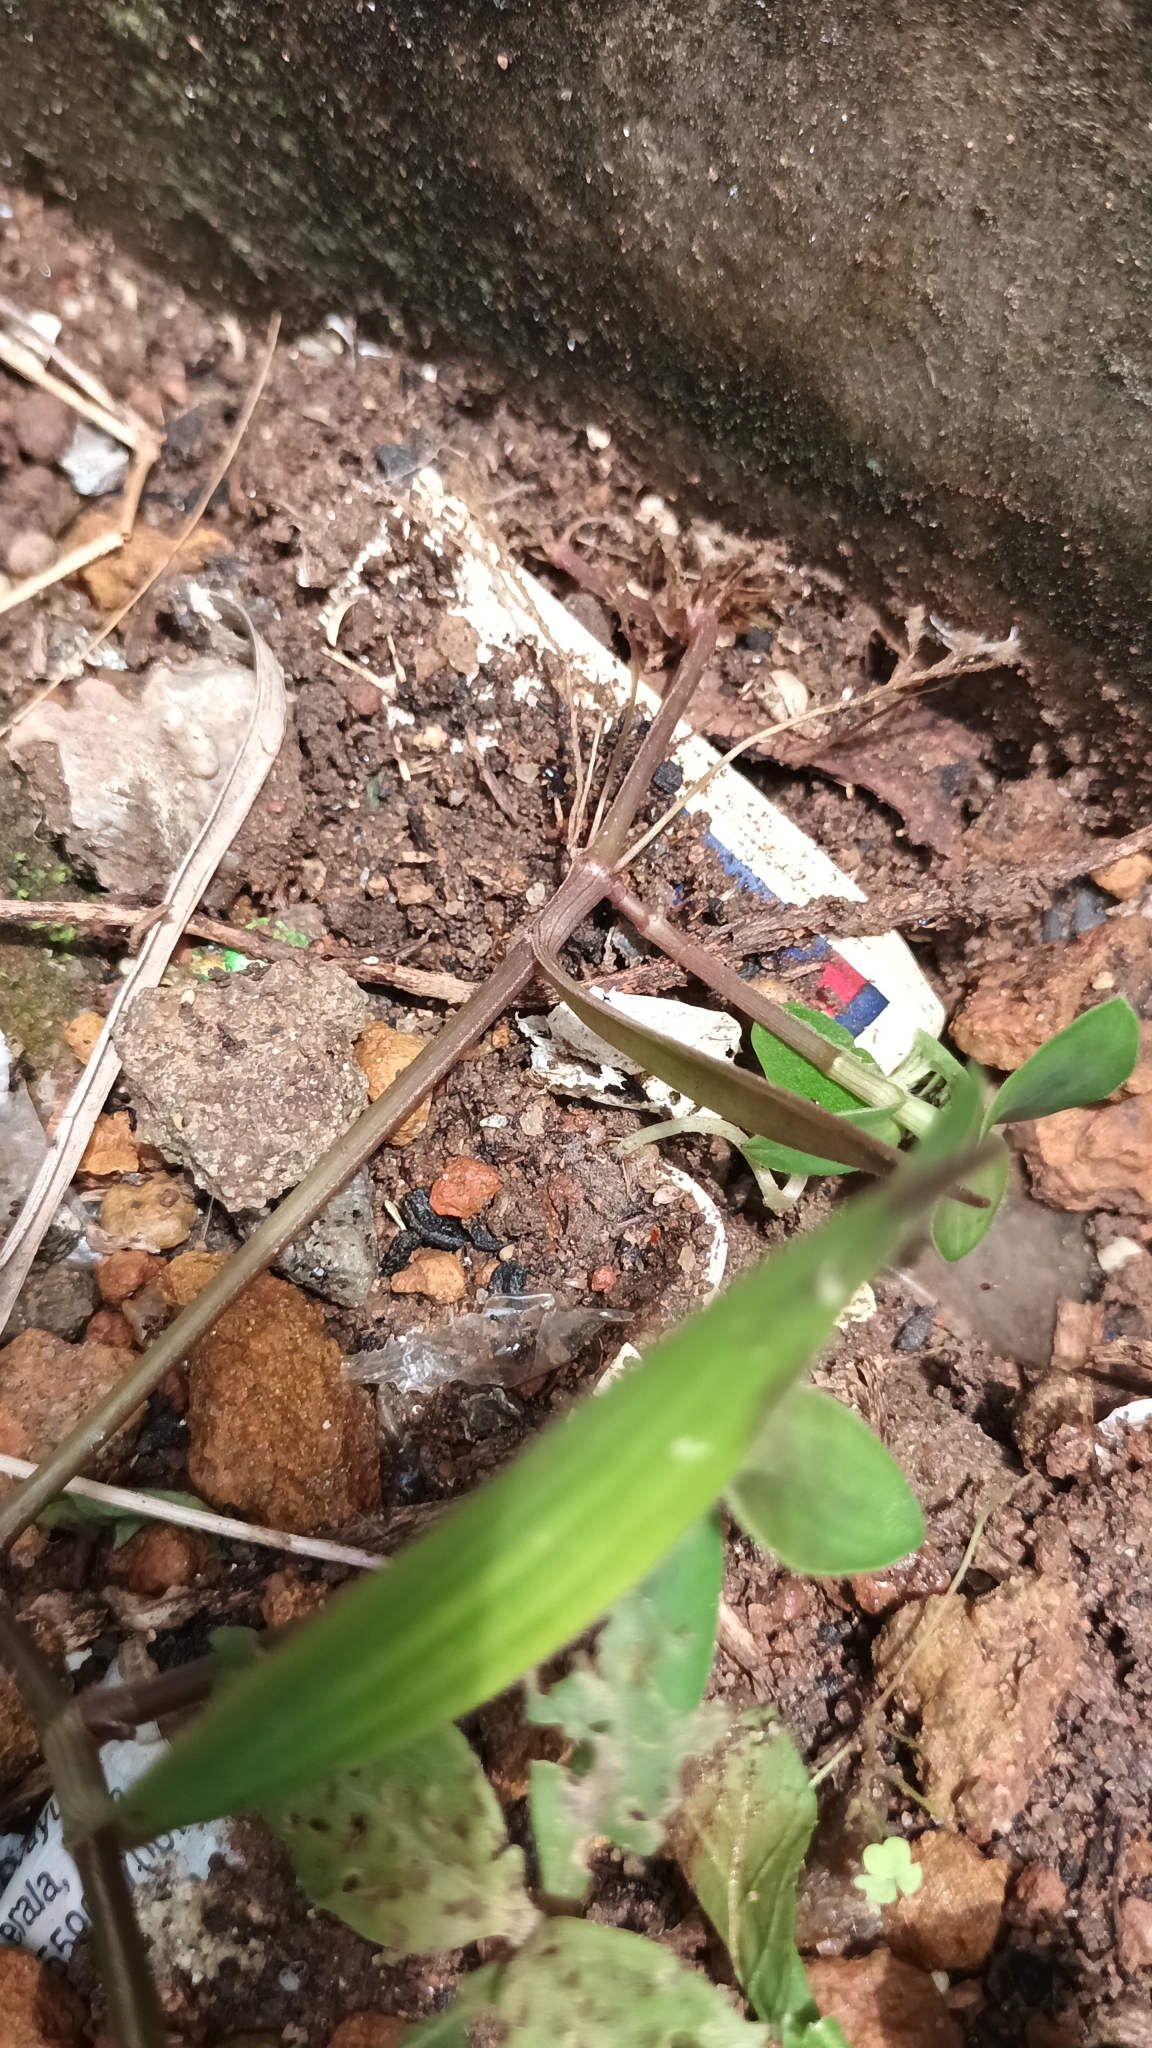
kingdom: Plantae
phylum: Tracheophyta
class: Liliopsida
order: Commelinales
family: Commelinaceae
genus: Cyanotis
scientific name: Cyanotis cristata
